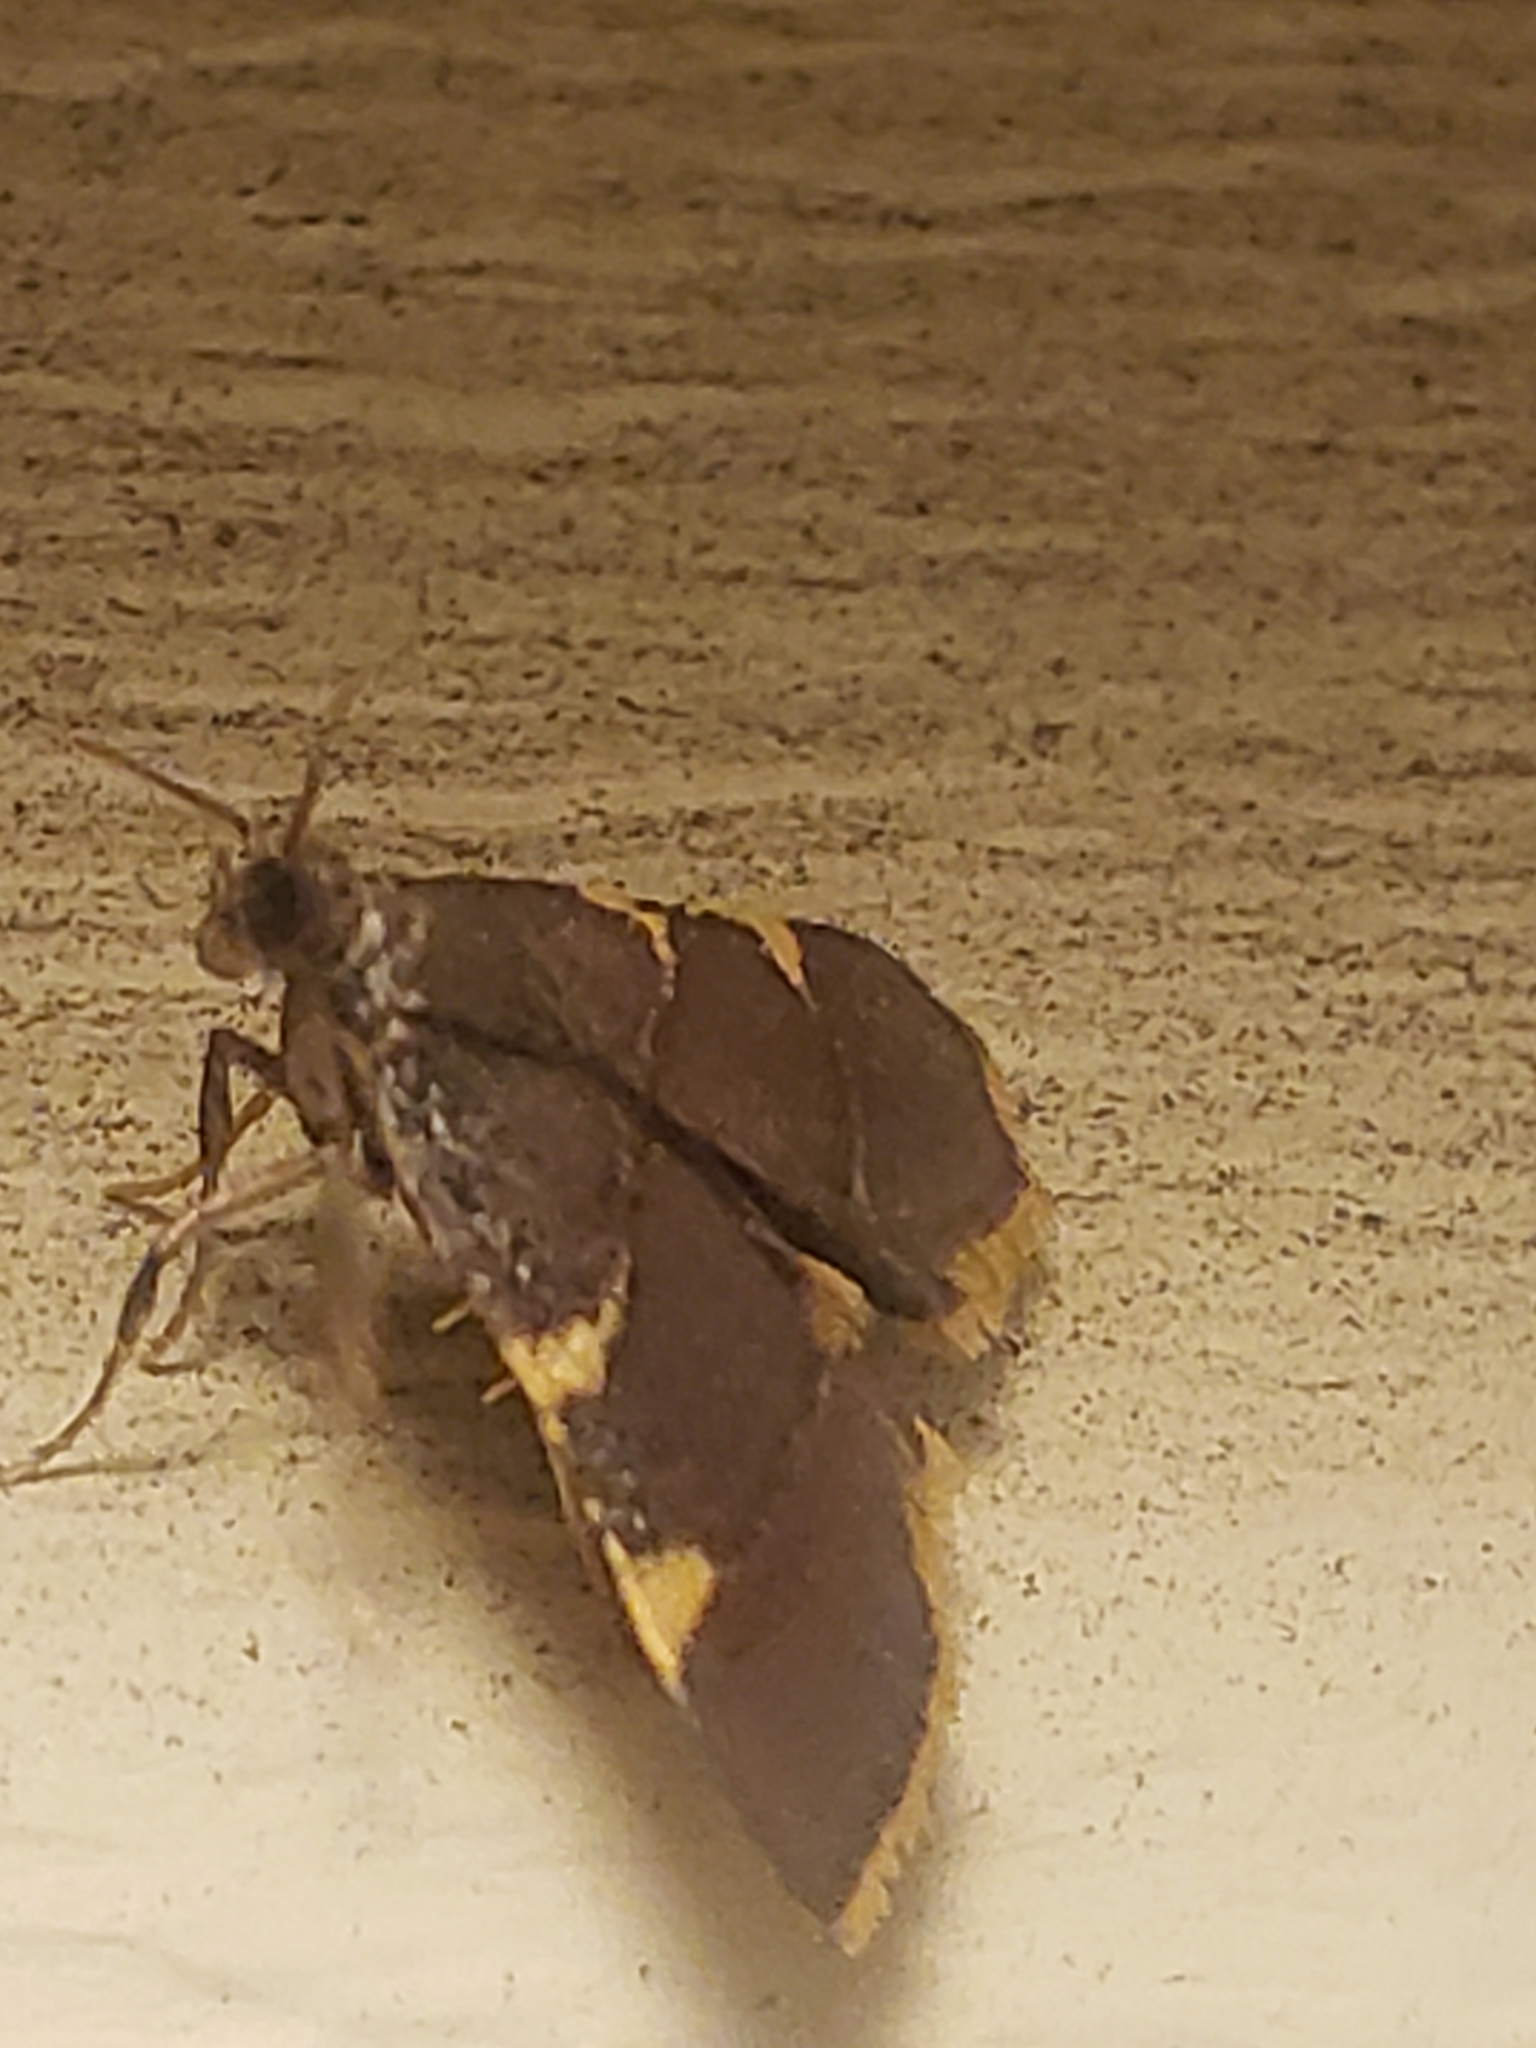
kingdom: Animalia
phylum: Arthropoda
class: Insecta
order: Lepidoptera
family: Pyralidae
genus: Hypsopygia
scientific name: Hypsopygia olinalis
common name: Yellow-fringed dolichomia moth
